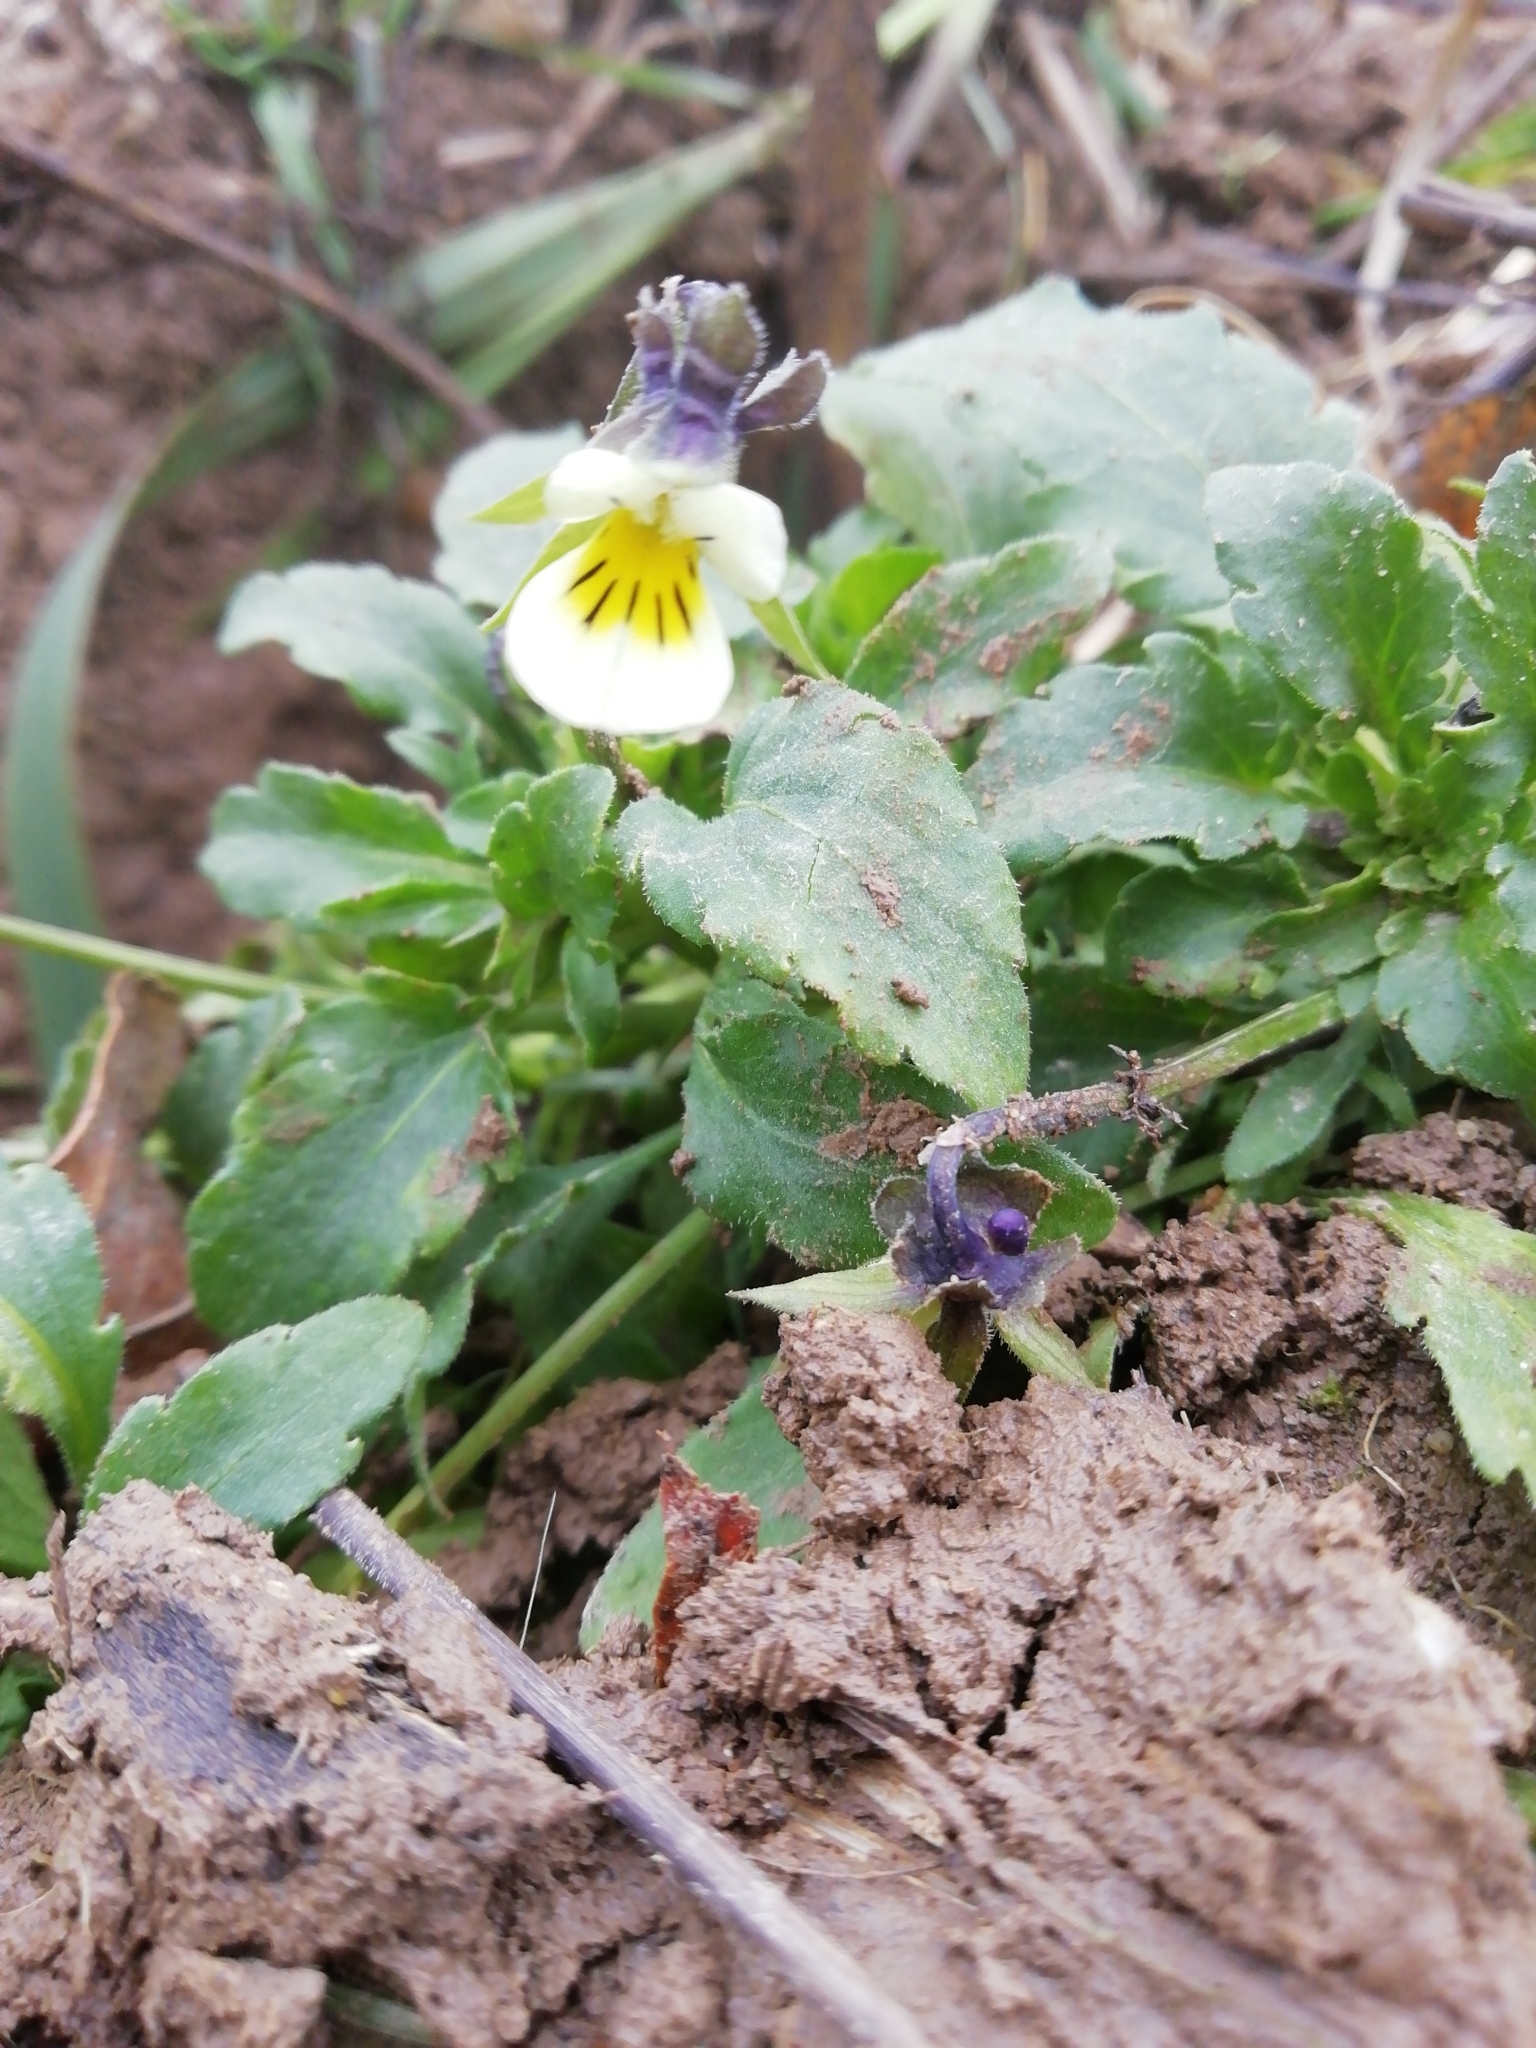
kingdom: Plantae
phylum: Tracheophyta
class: Magnoliopsida
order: Malpighiales
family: Violaceae
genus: Viola
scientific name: Viola arvensis
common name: Field pansy
